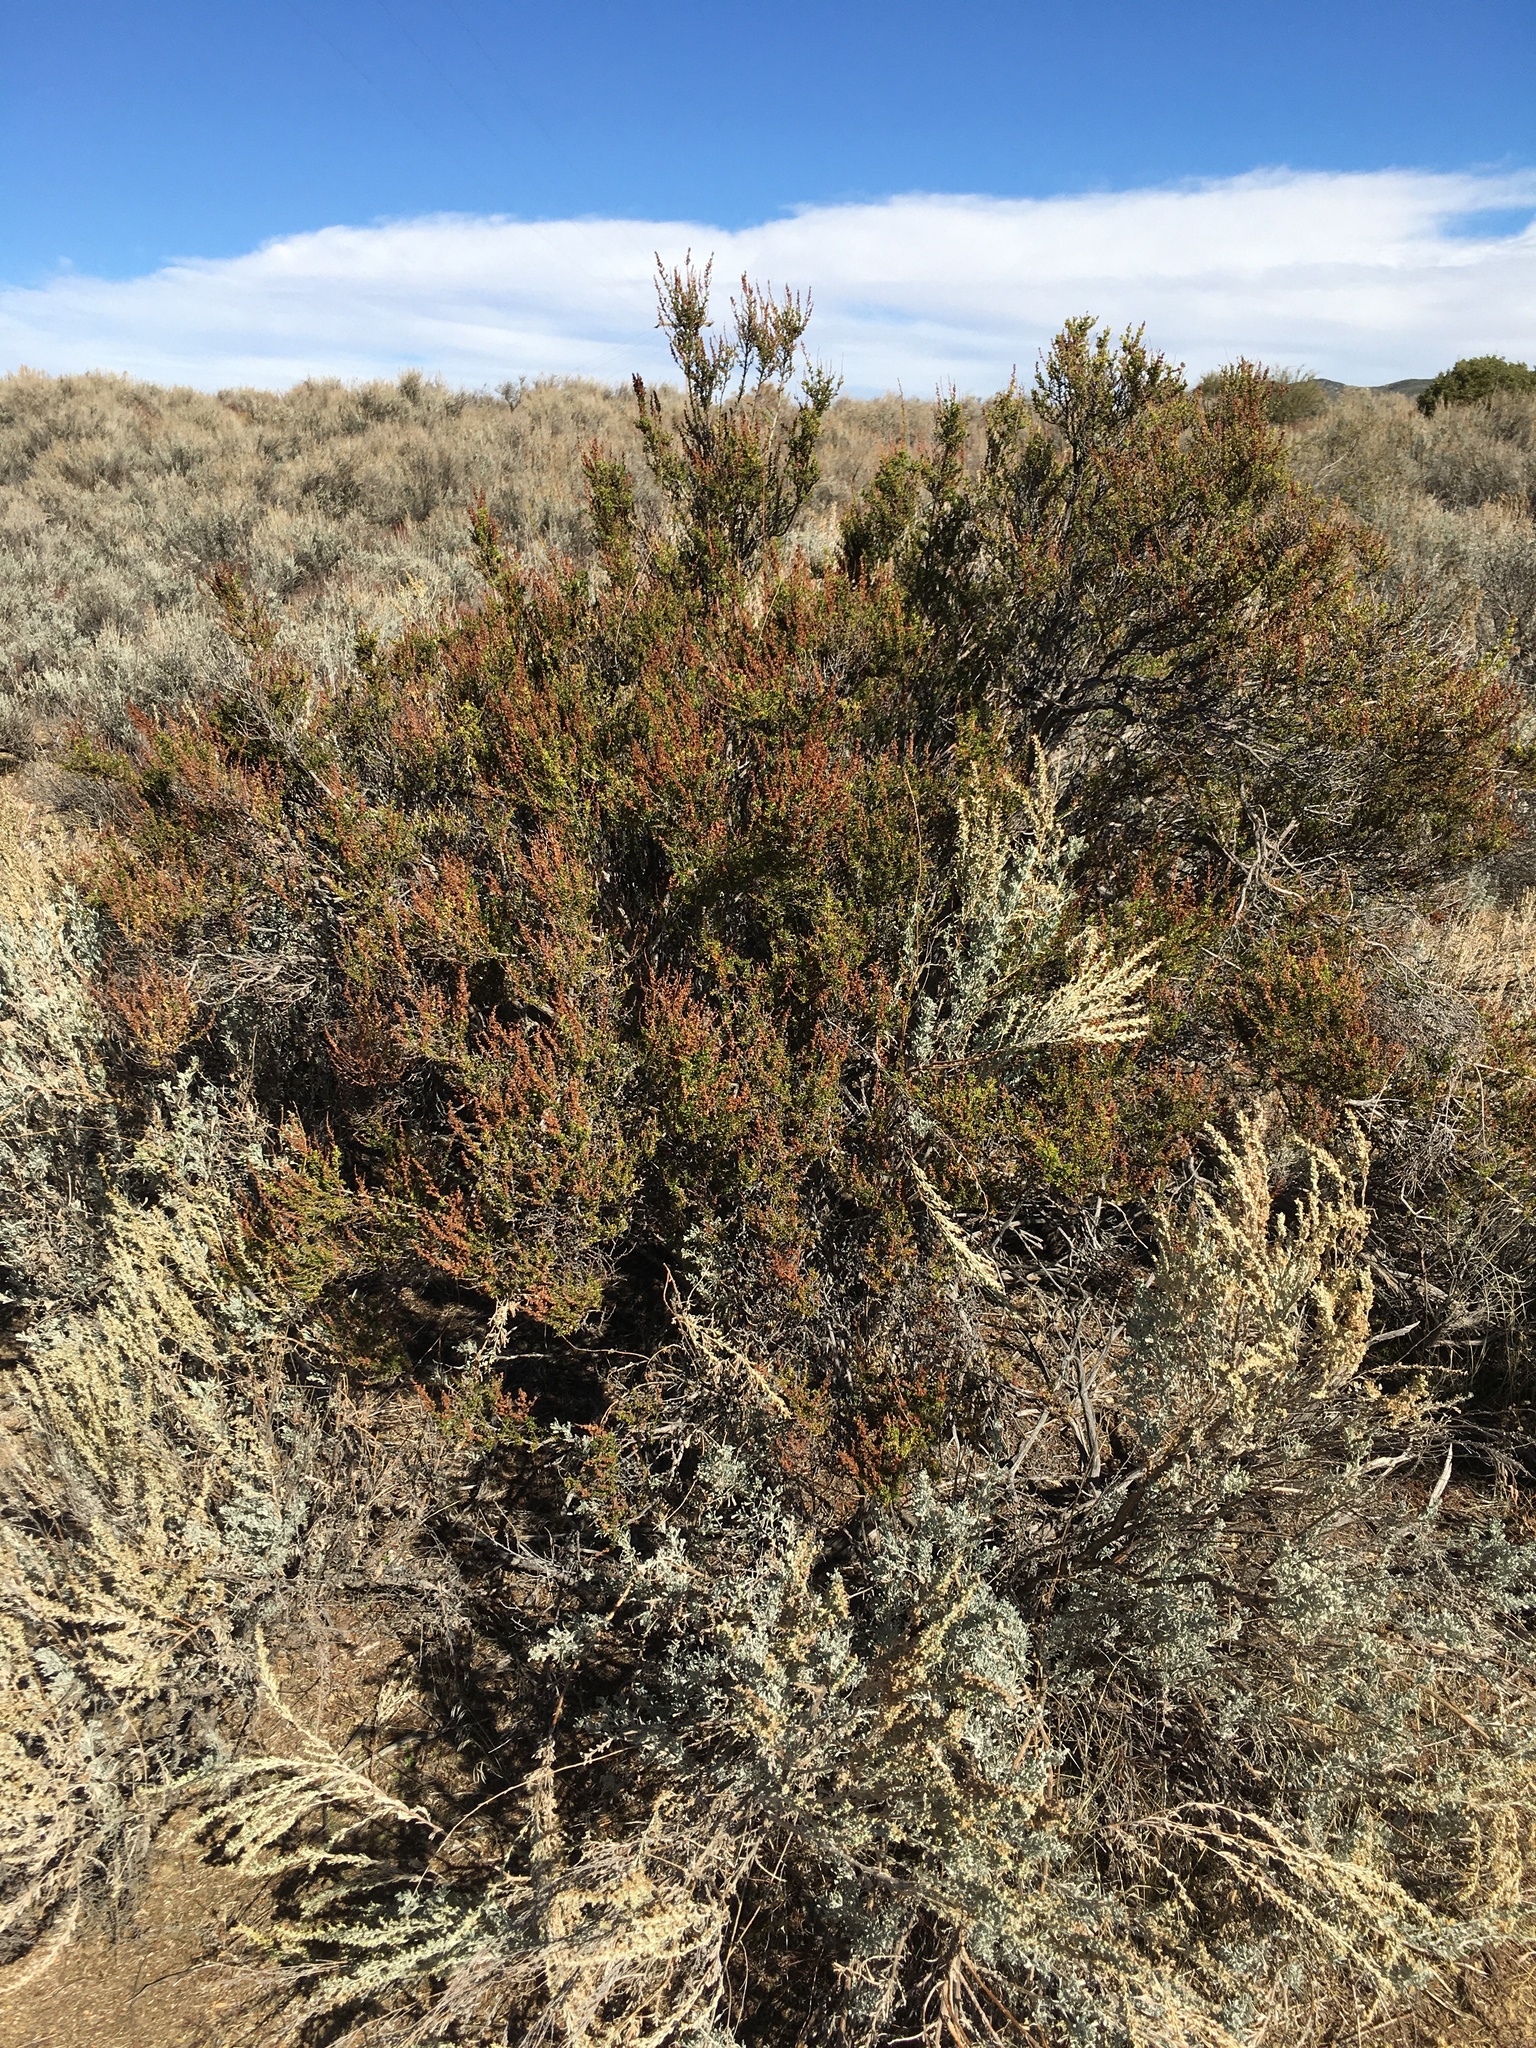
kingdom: Plantae
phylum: Tracheophyta
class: Magnoliopsida
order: Rosales
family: Rosaceae
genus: Adenostoma
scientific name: Adenostoma fasciculatum
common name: Chamise
